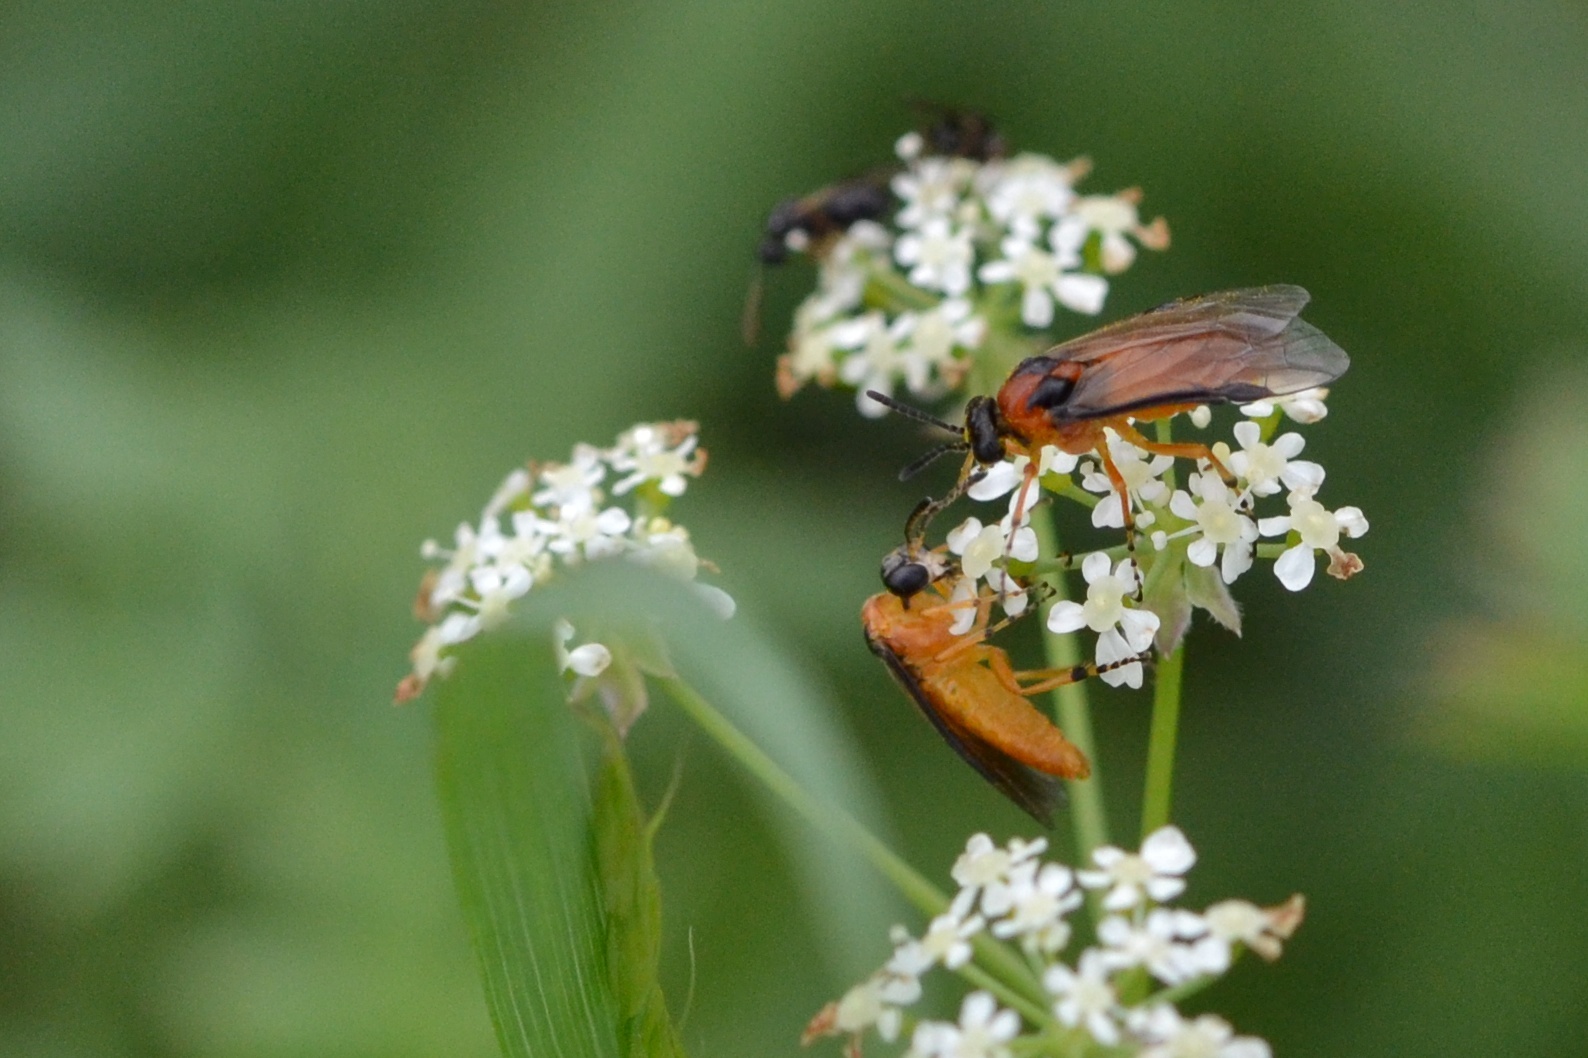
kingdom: Animalia
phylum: Arthropoda
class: Insecta
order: Hymenoptera
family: Tenthredinidae
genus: Athalia
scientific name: Athalia rosae
